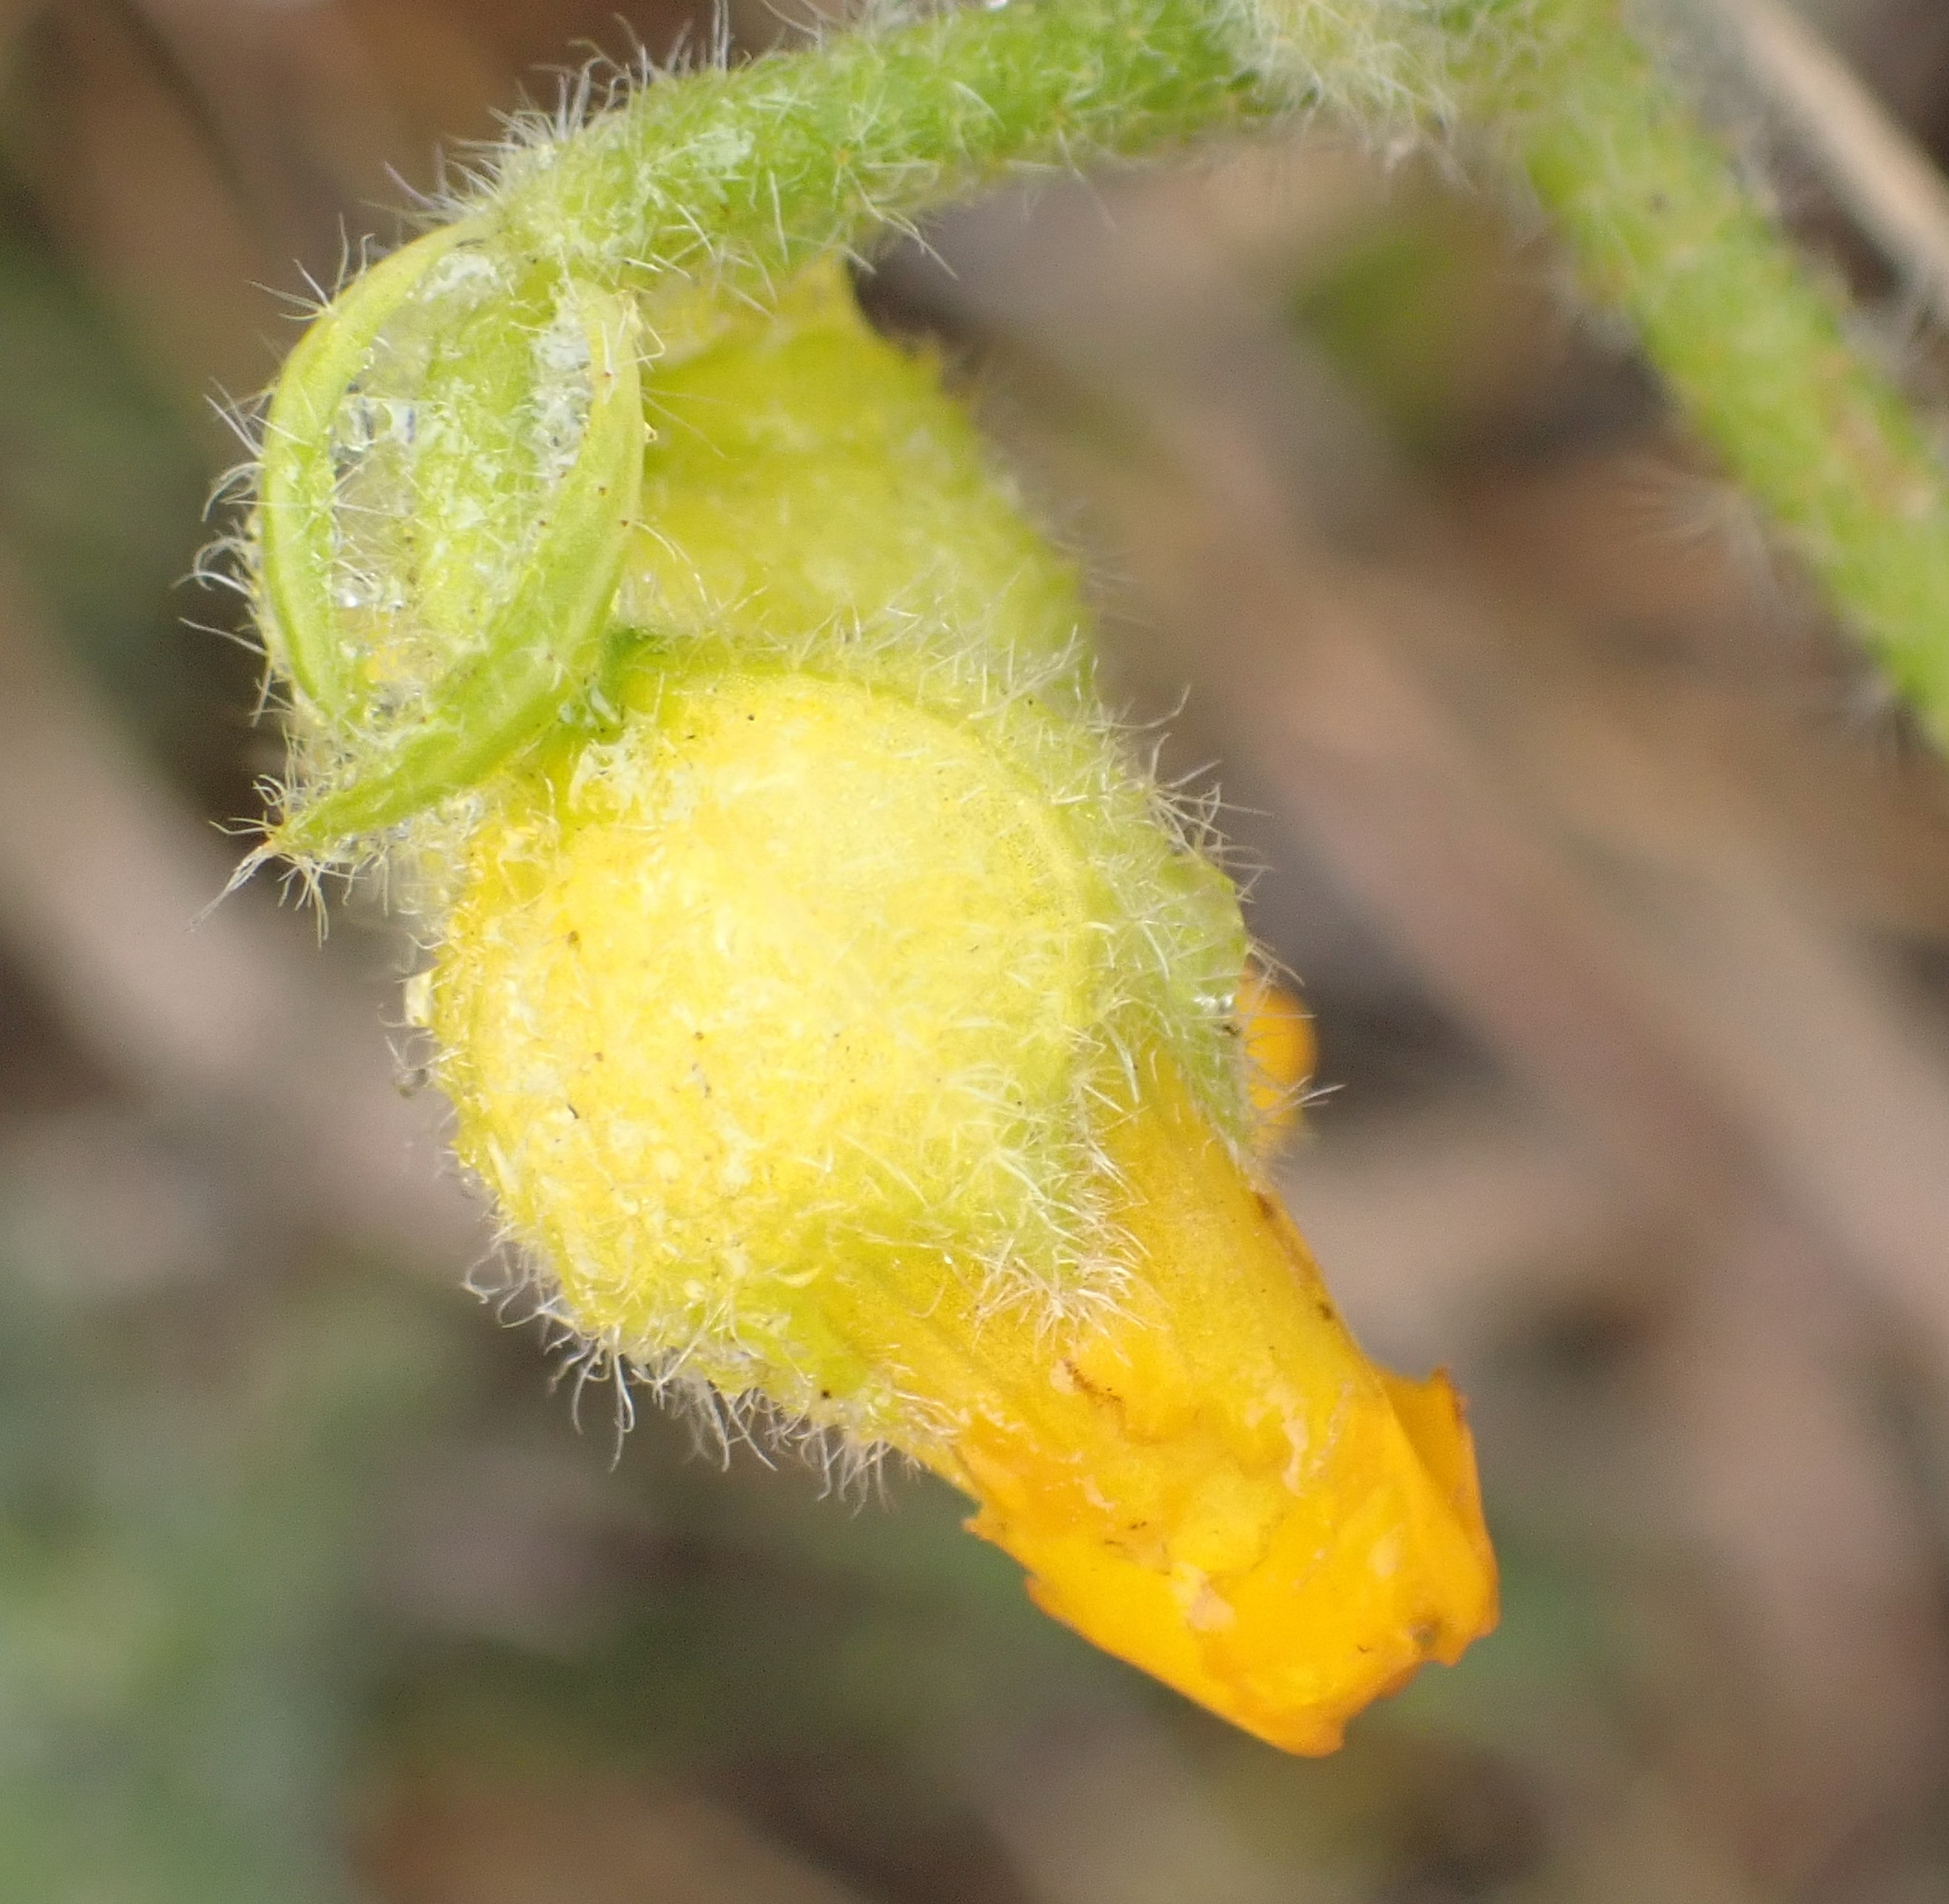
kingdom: Plantae
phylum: Tracheophyta
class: Magnoliopsida
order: Malvales
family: Malvaceae
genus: Hermannia
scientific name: Hermannia decumbens
